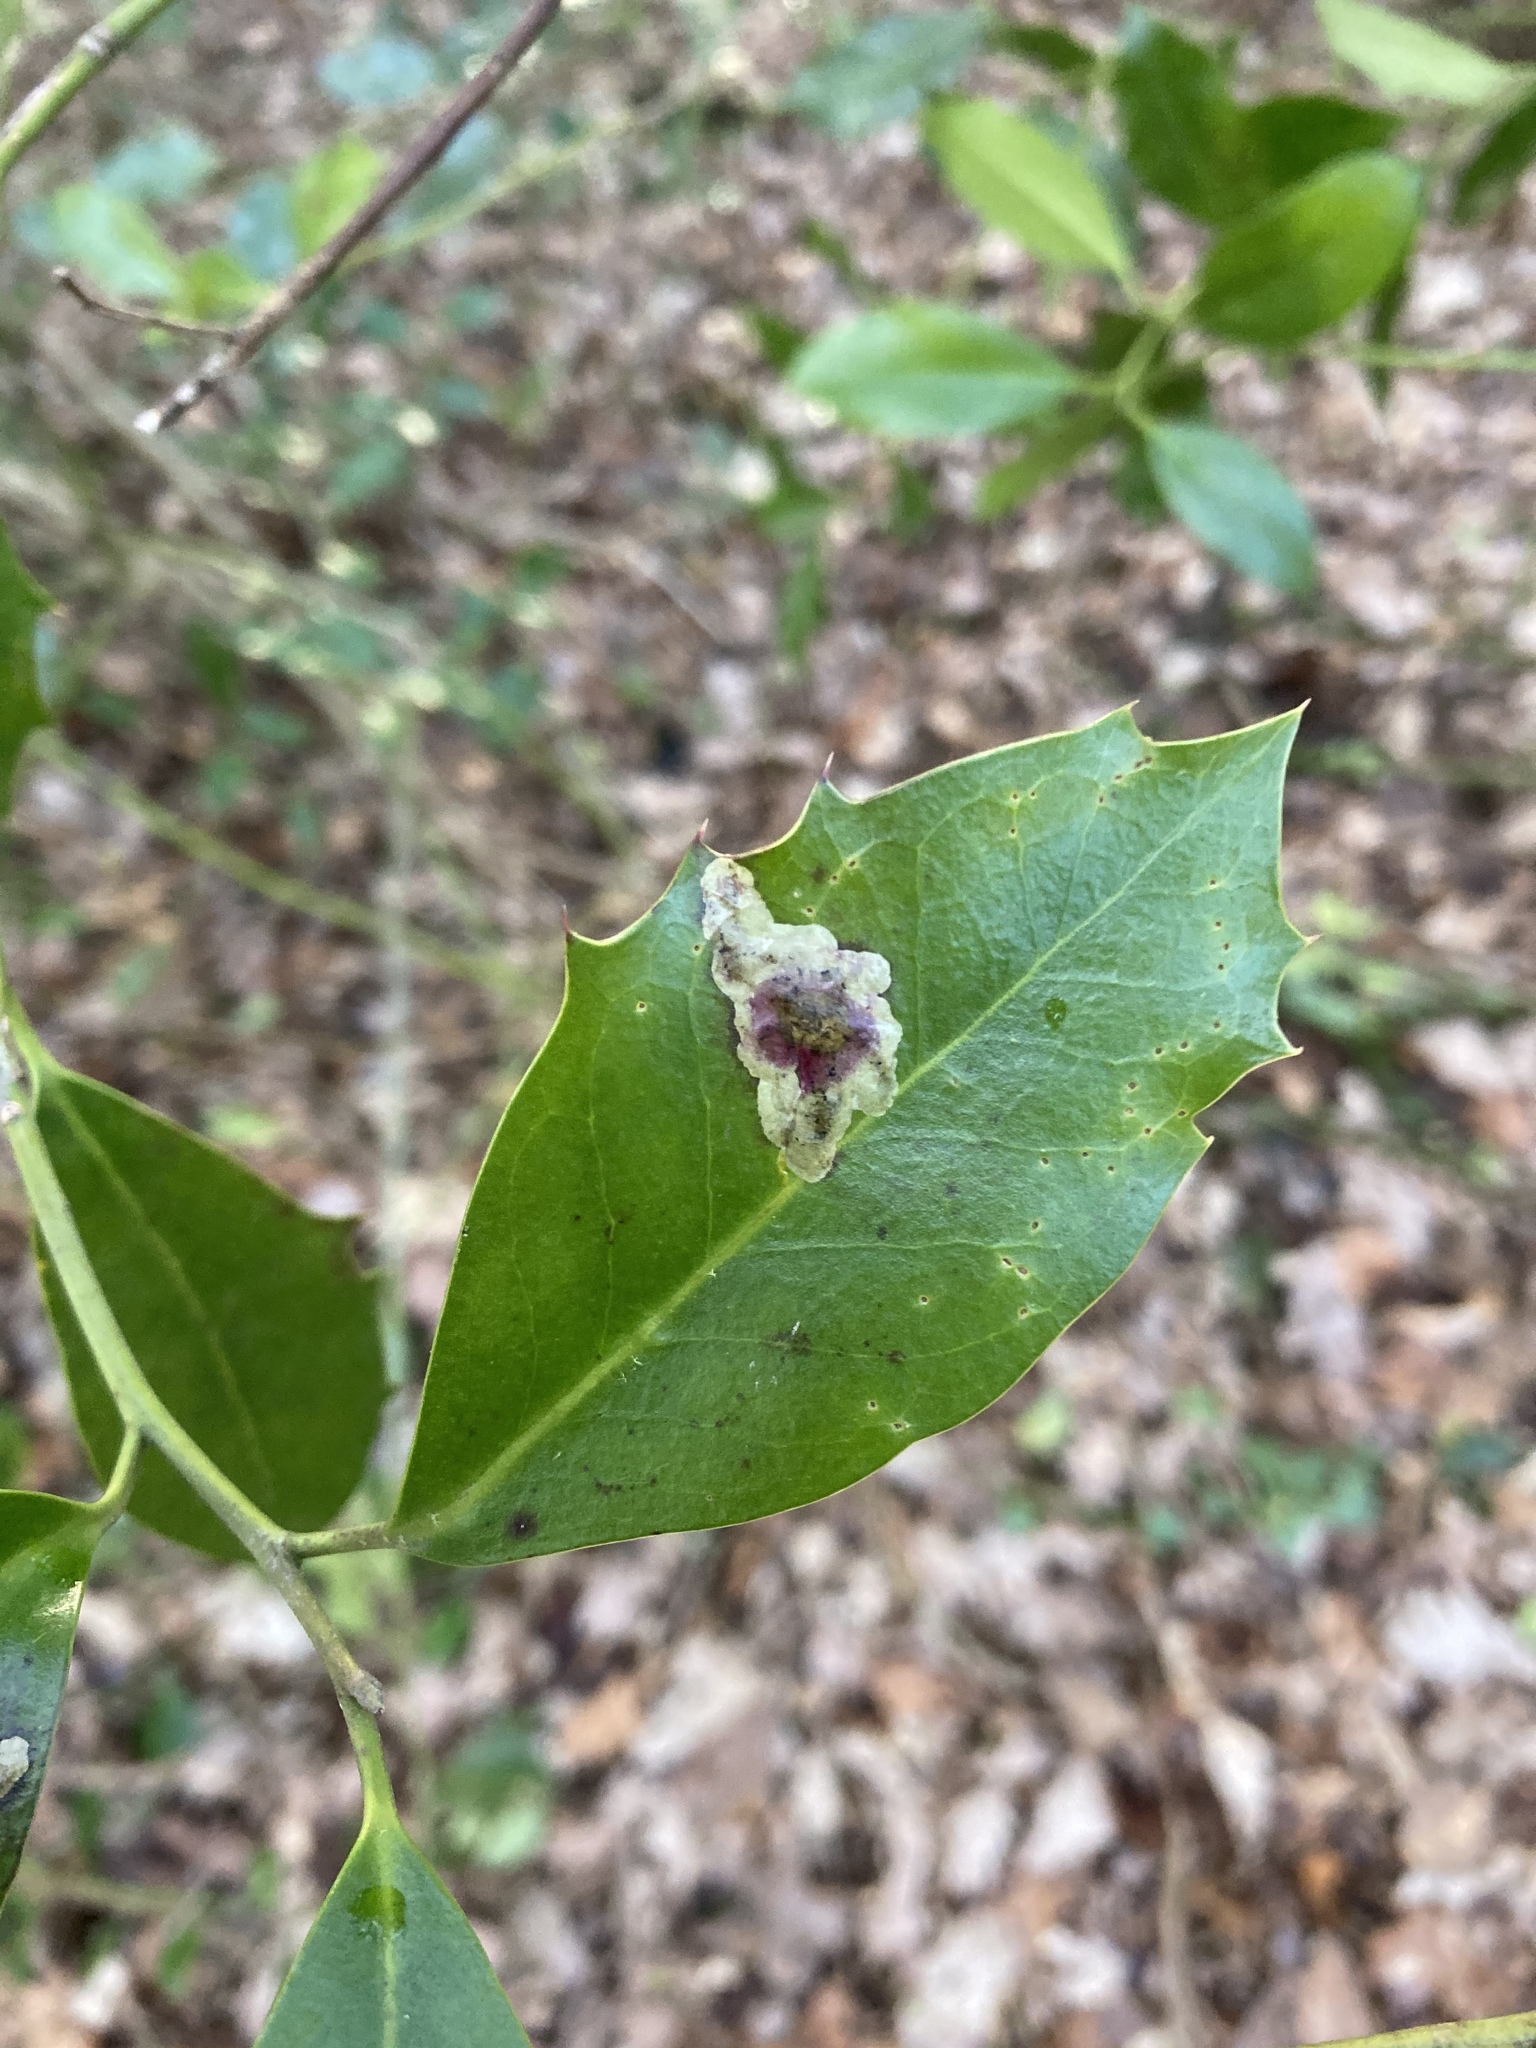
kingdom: Animalia
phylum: Arthropoda
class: Insecta
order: Diptera
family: Agromyzidae
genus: Phytomyza
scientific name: Phytomyza ilicis
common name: Holly leafminer
